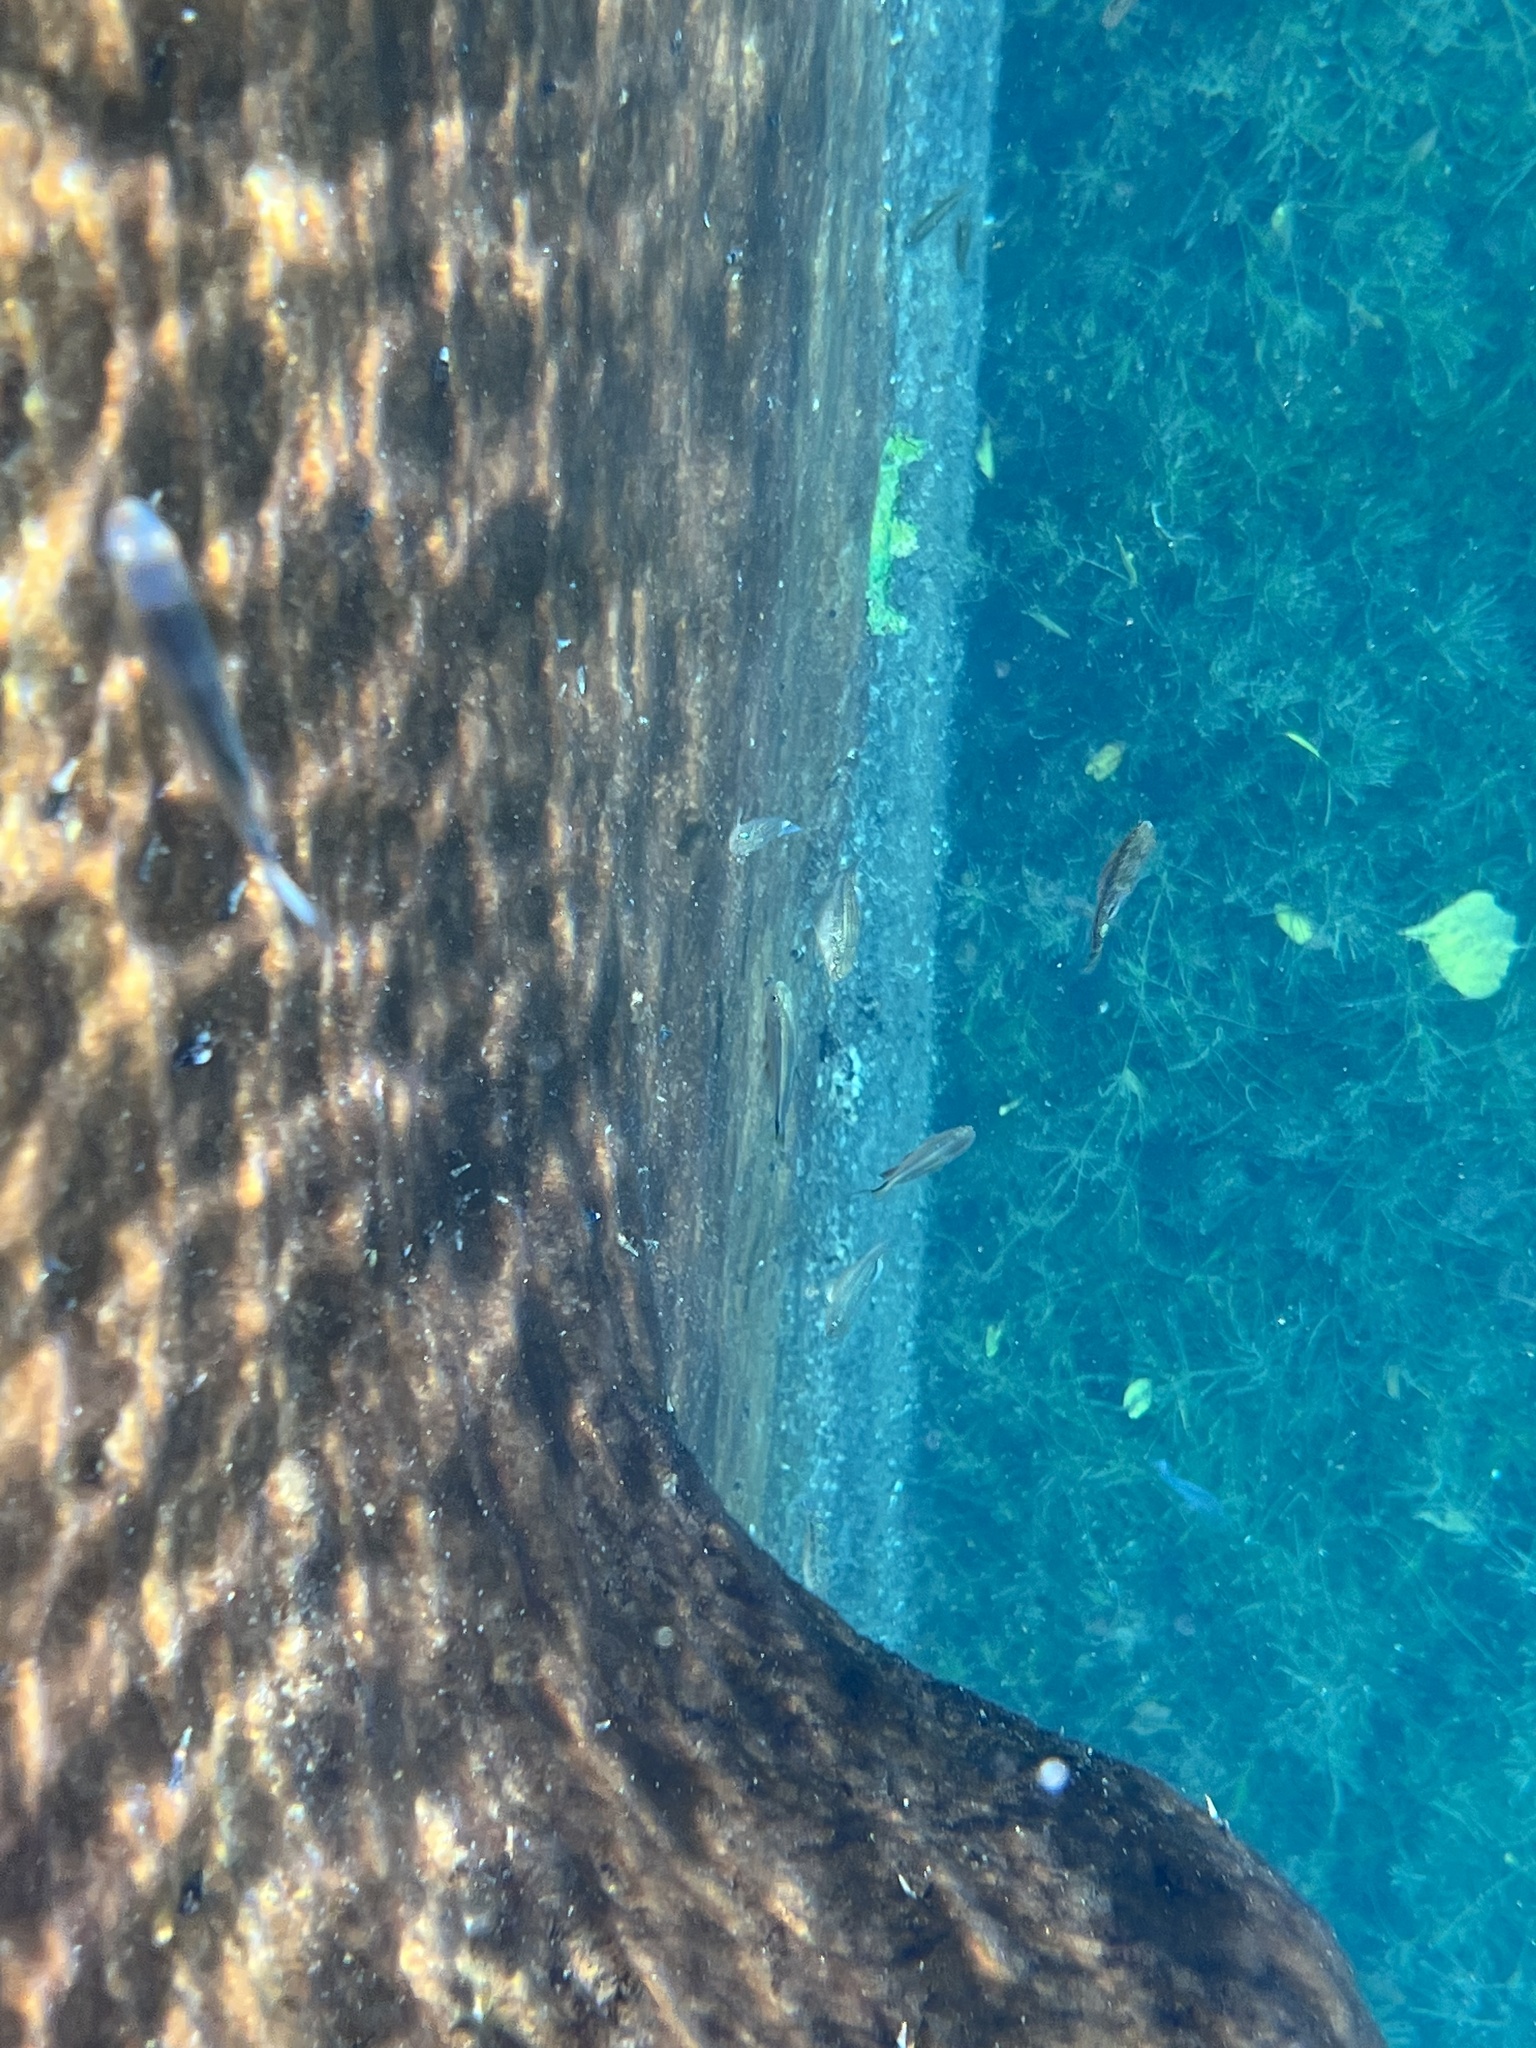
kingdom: Animalia
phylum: Chordata
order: Cyprinodontiformes
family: Cyprinodontidae
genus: Cyprinodon
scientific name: Cyprinodon elegans
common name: Comanche springs pupfish
